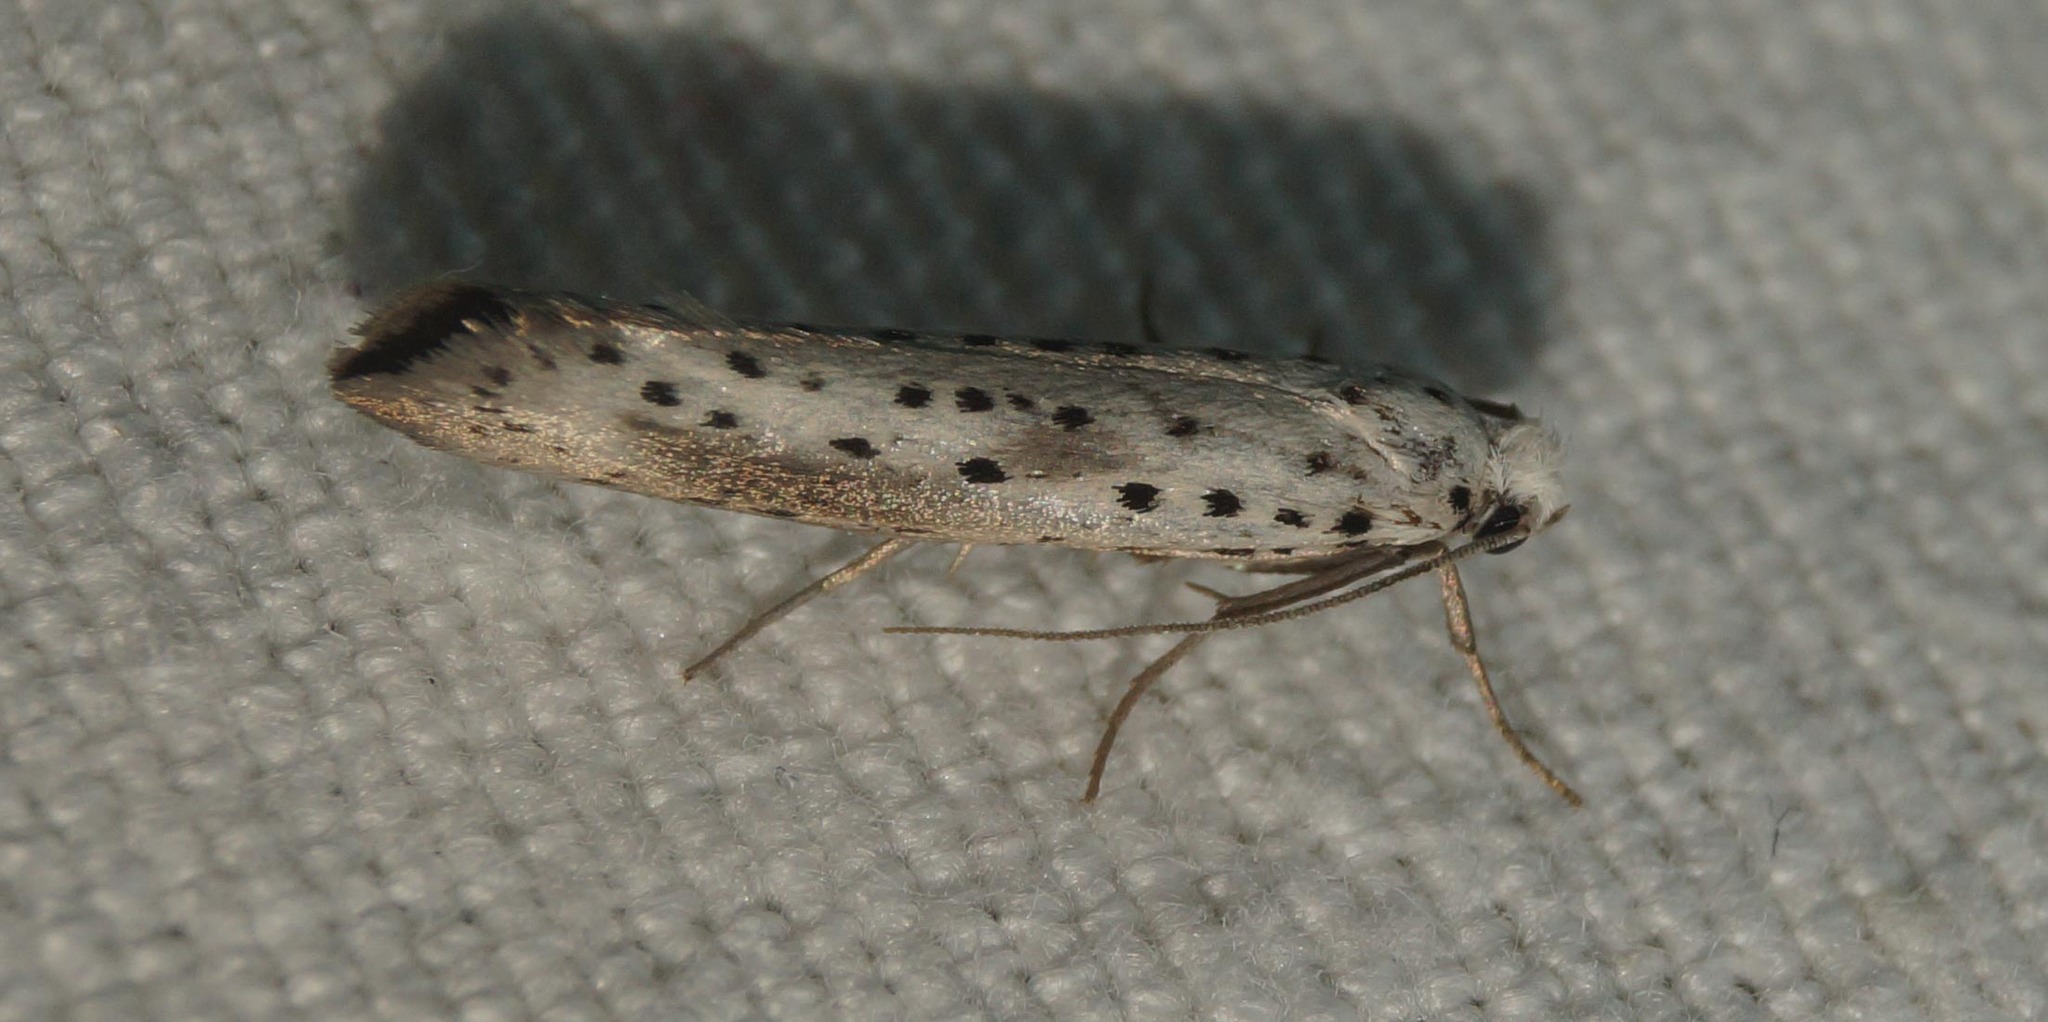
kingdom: Animalia
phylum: Arthropoda
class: Insecta
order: Lepidoptera
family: Yponomeutidae
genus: Yponomeuta
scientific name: Yponomeuta irrorella
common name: Scarce ermine
